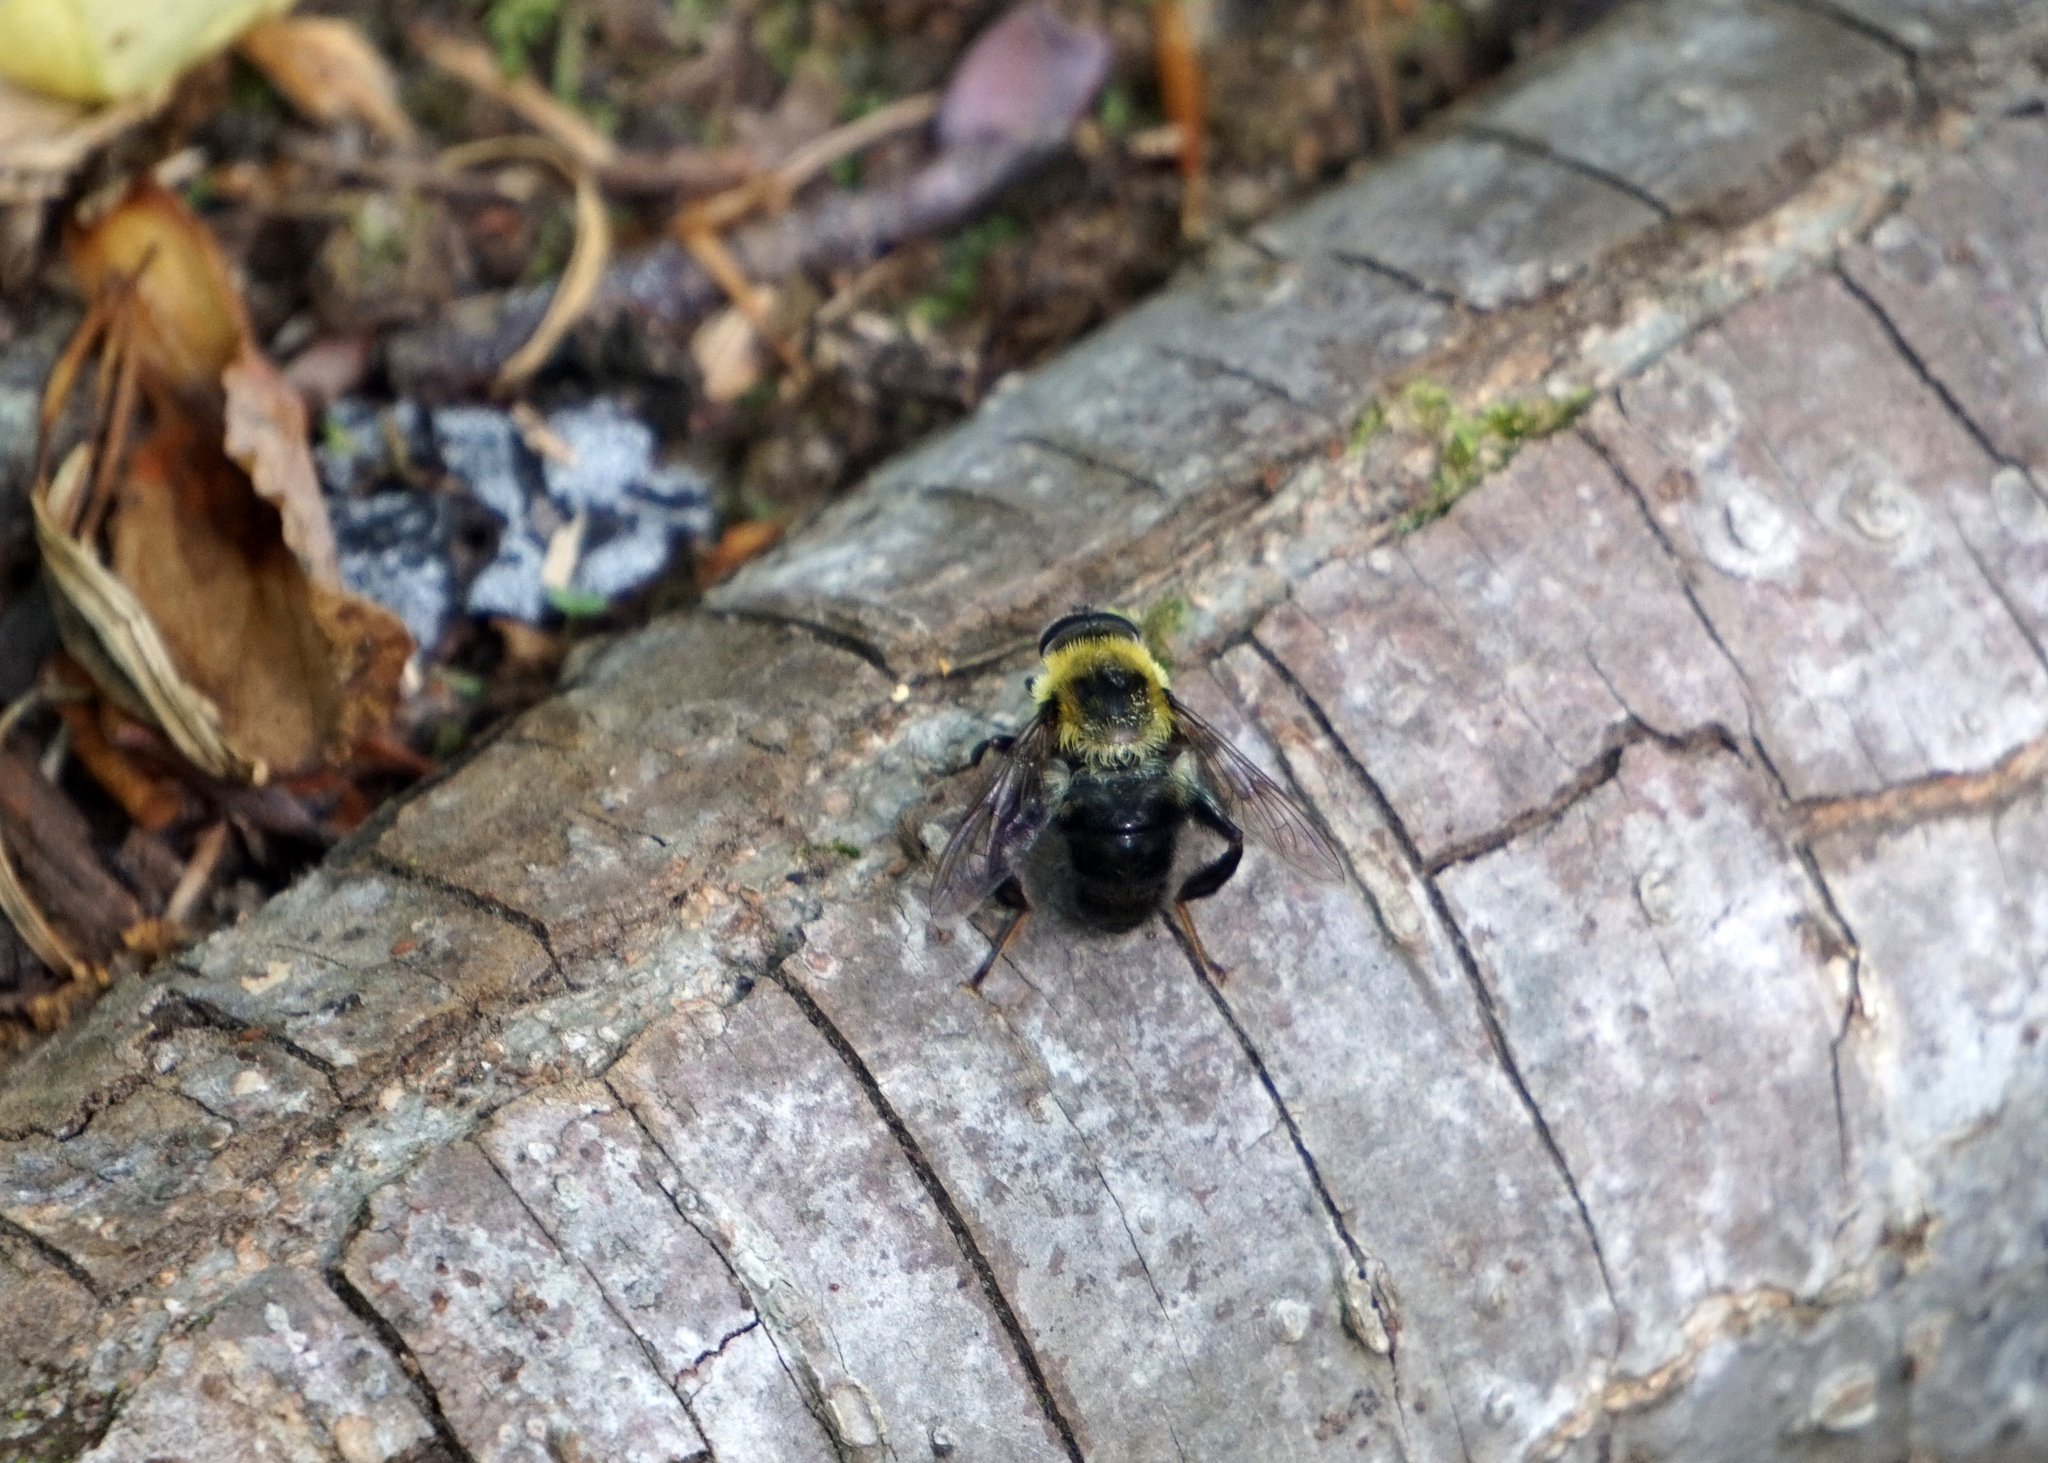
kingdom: Animalia
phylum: Arthropoda
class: Insecta
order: Diptera
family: Syrphidae
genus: Imatisma
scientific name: Imatisma posticata
